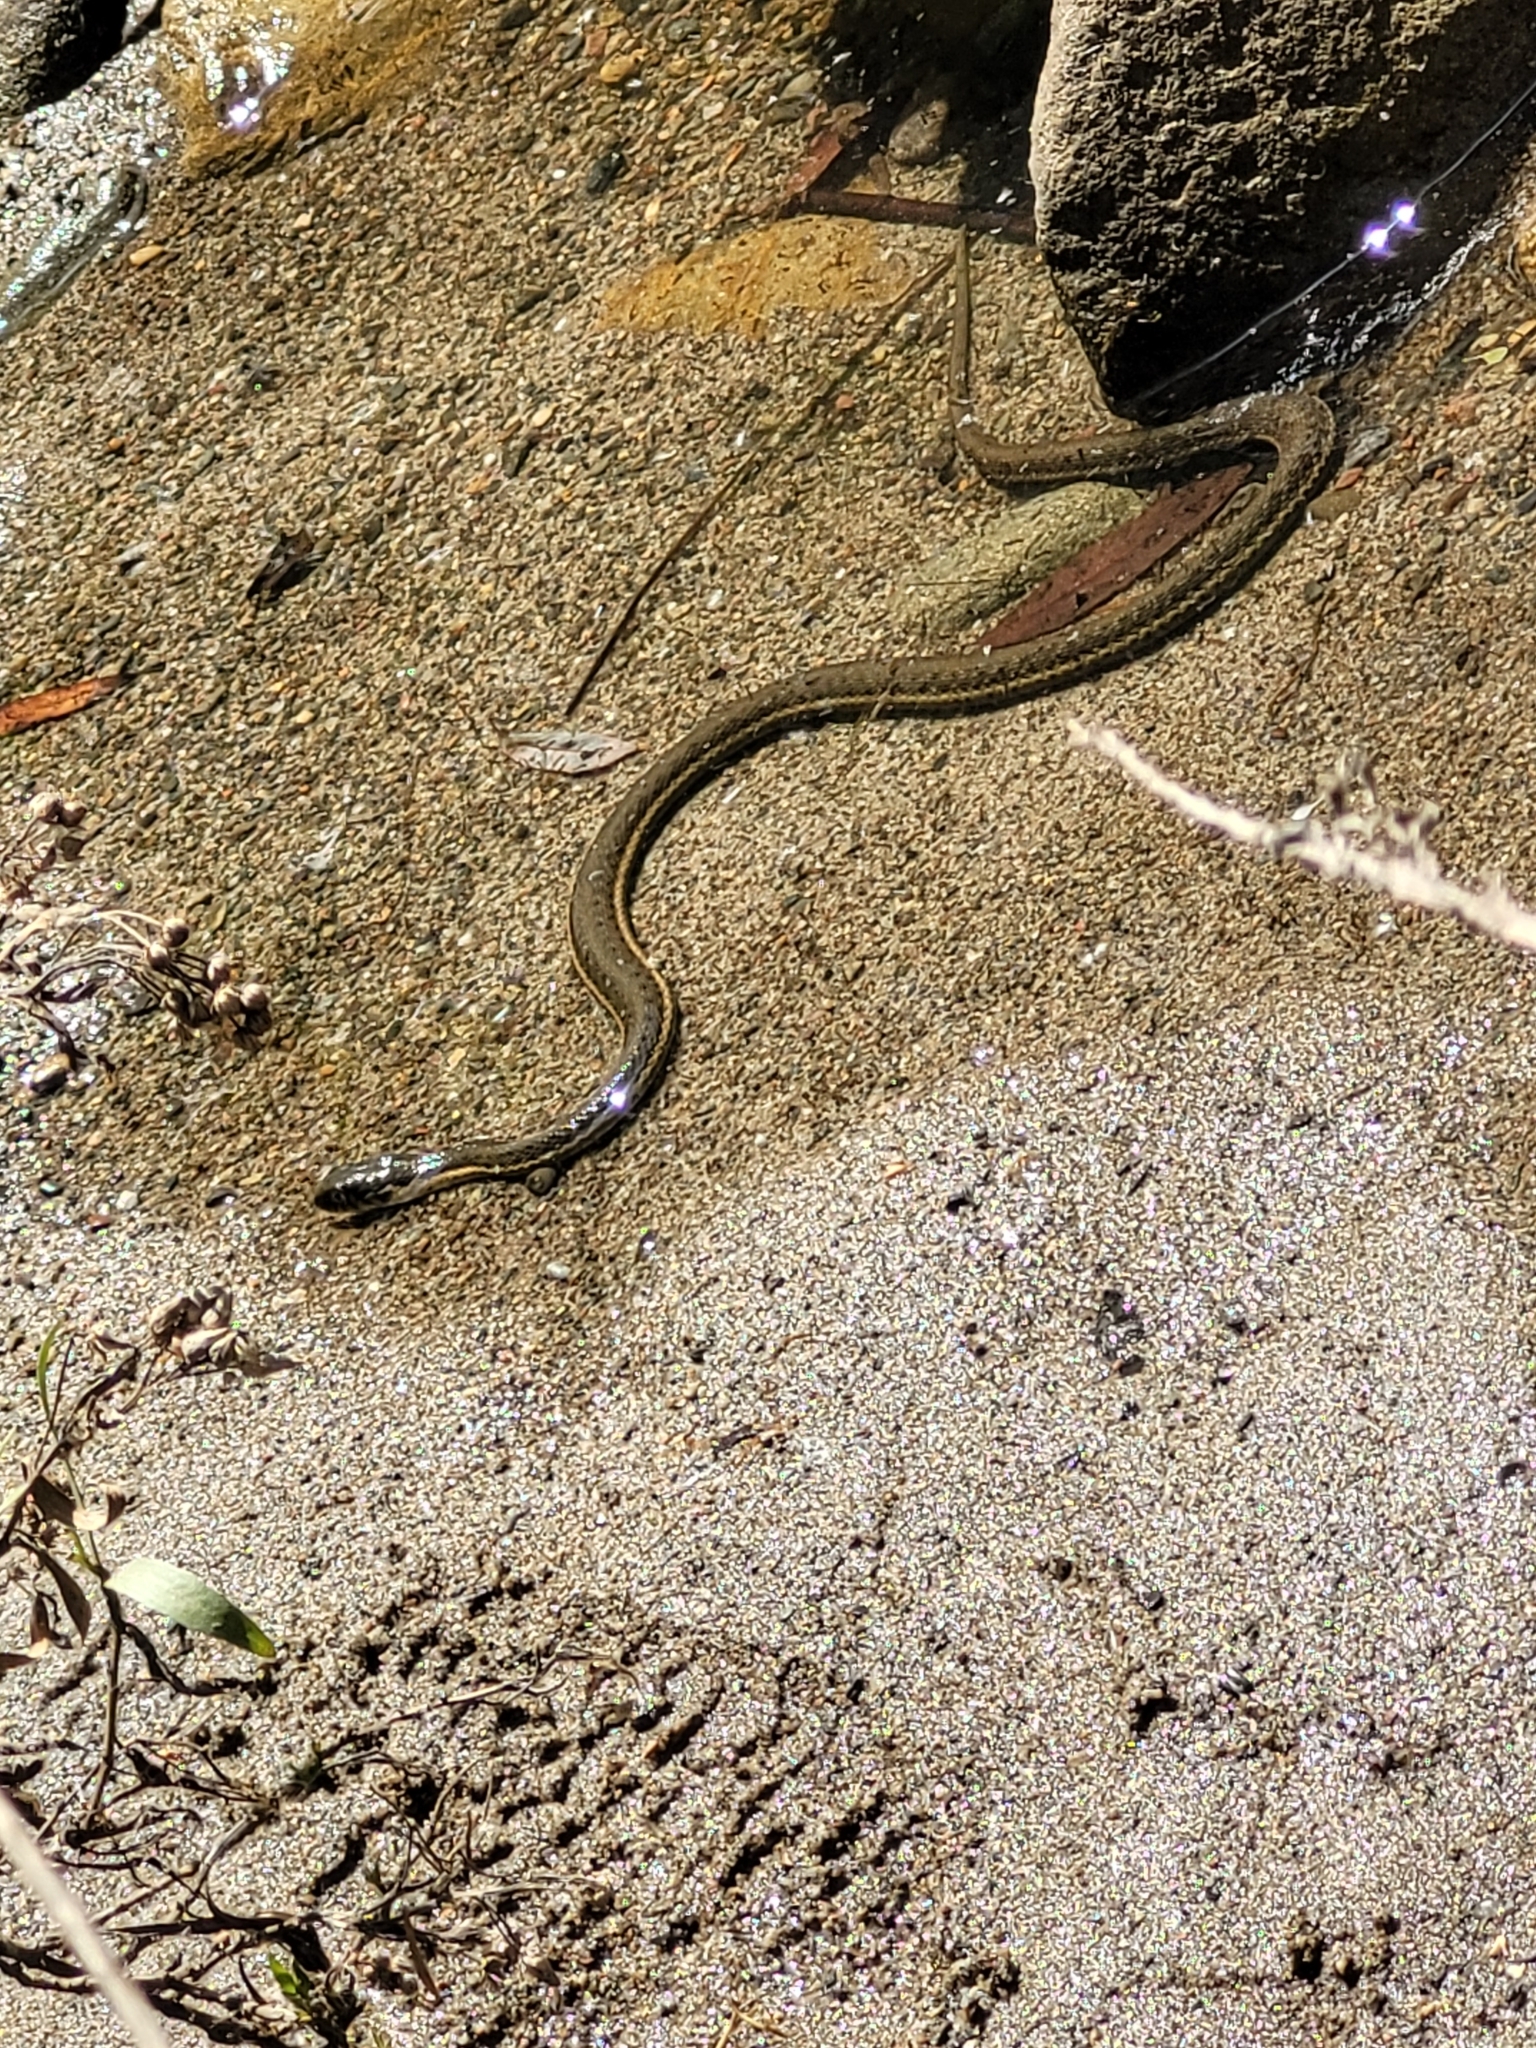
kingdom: Animalia
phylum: Chordata
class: Squamata
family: Colubridae
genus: Thamnophis
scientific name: Thamnophis hammondii
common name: Two-striped garter snake
